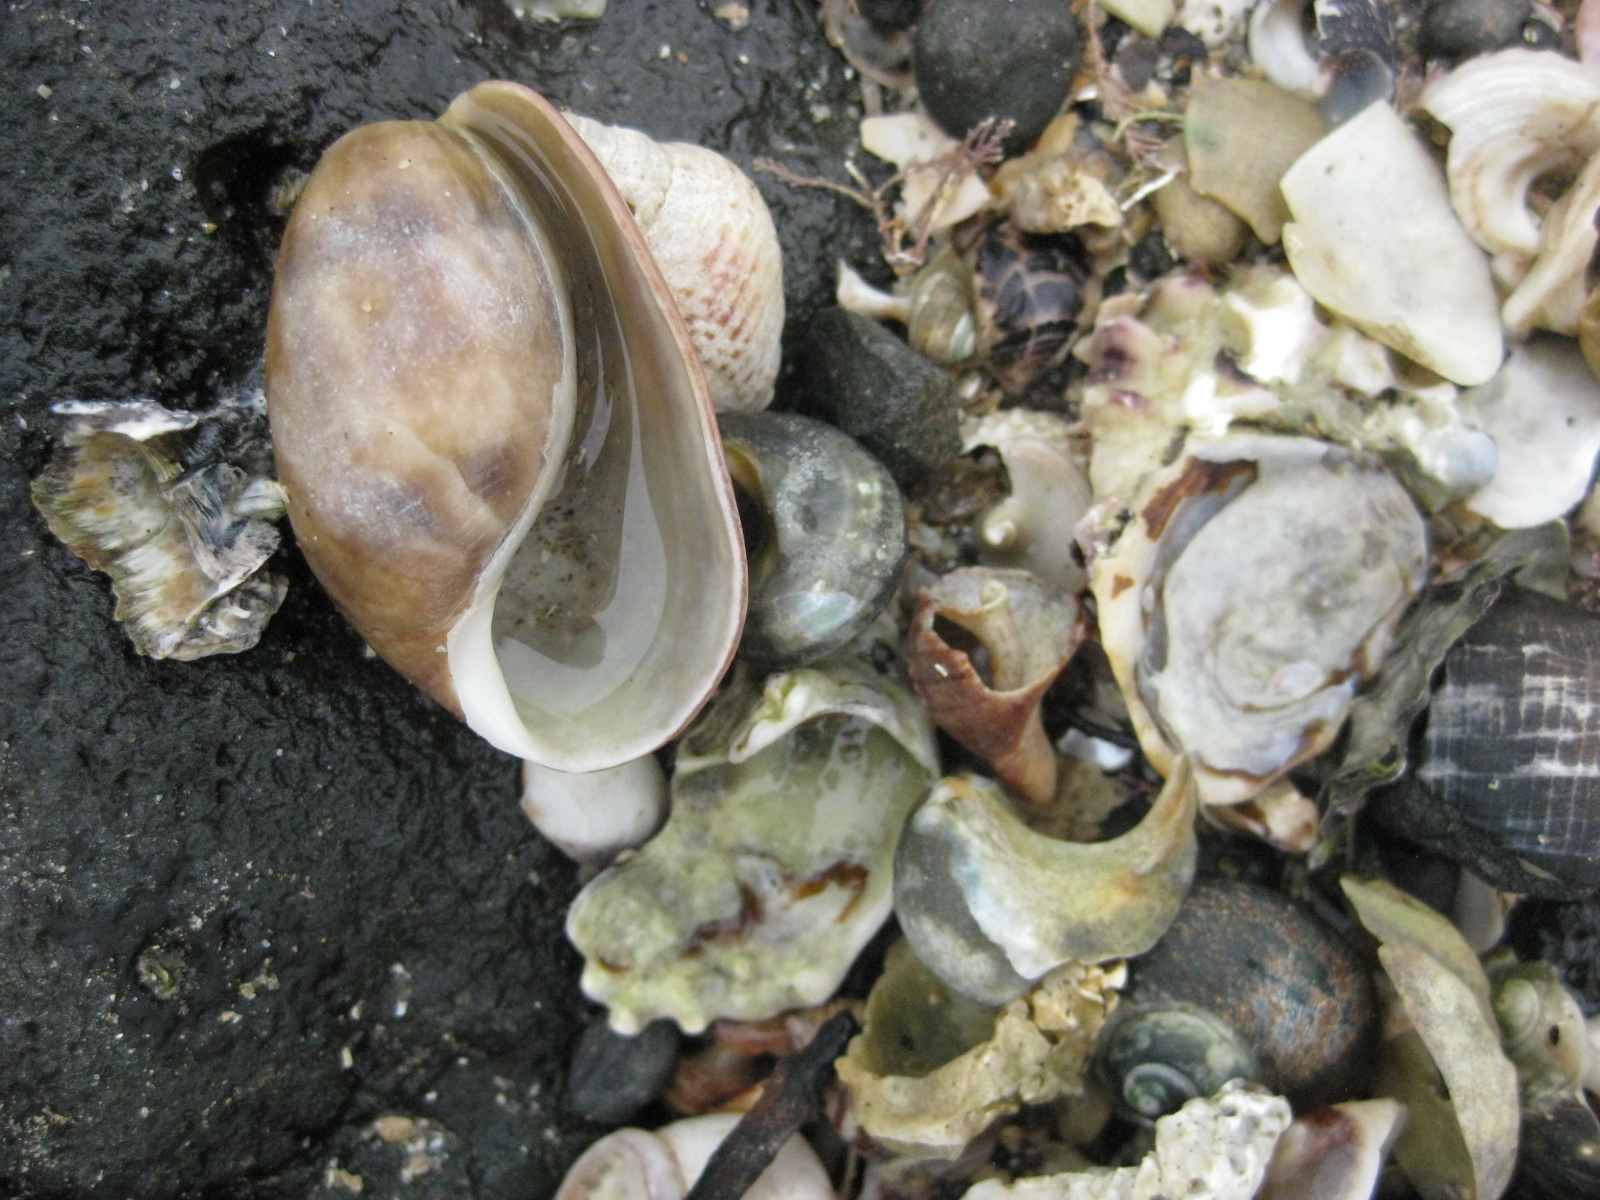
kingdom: Animalia
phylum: Mollusca
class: Gastropoda
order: Cephalaspidea
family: Bullidae
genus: Bulla
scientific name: Bulla quoyii
